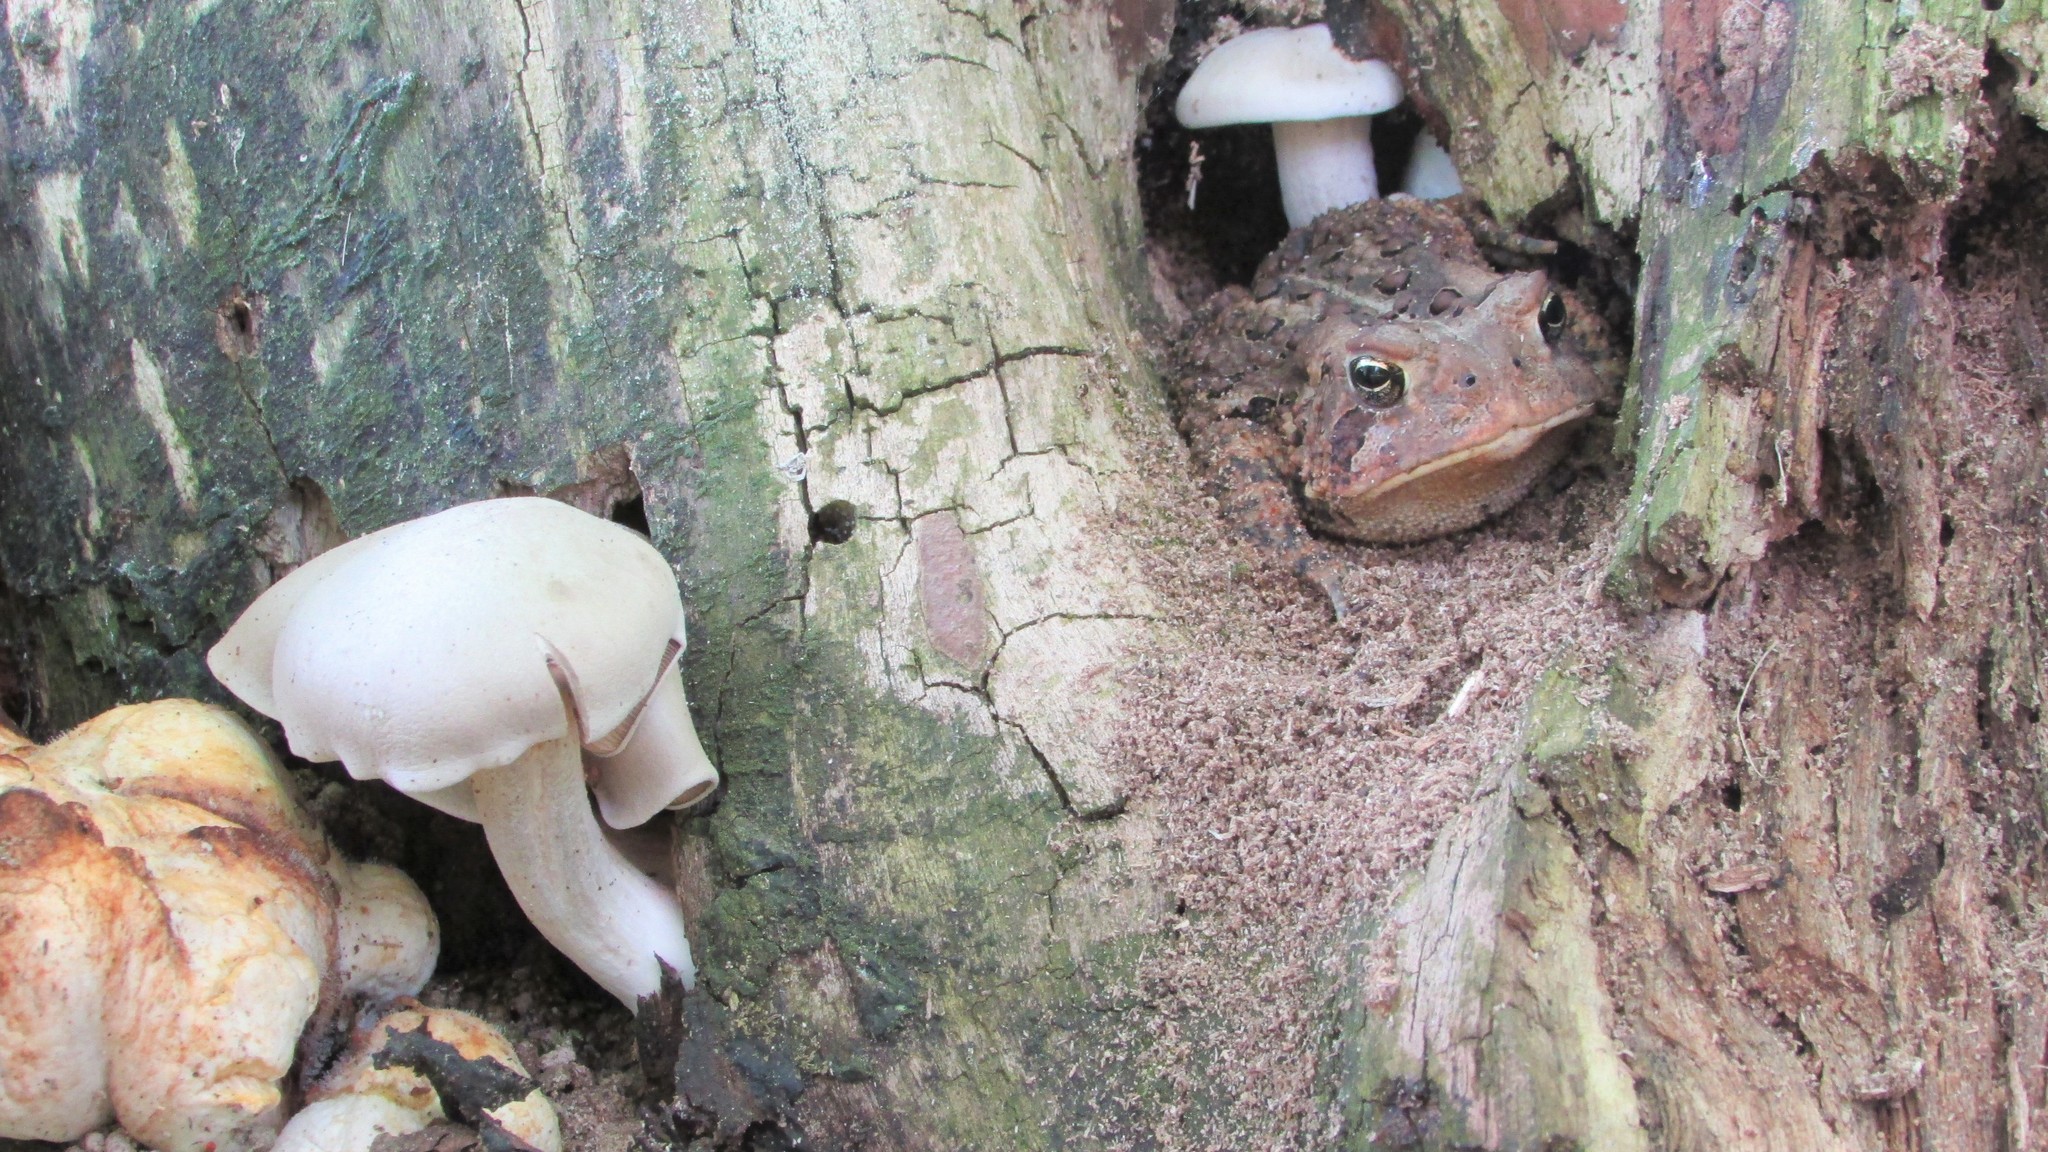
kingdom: Animalia
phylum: Chordata
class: Amphibia
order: Anura
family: Bufonidae
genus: Anaxyrus
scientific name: Anaxyrus americanus
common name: American toad
